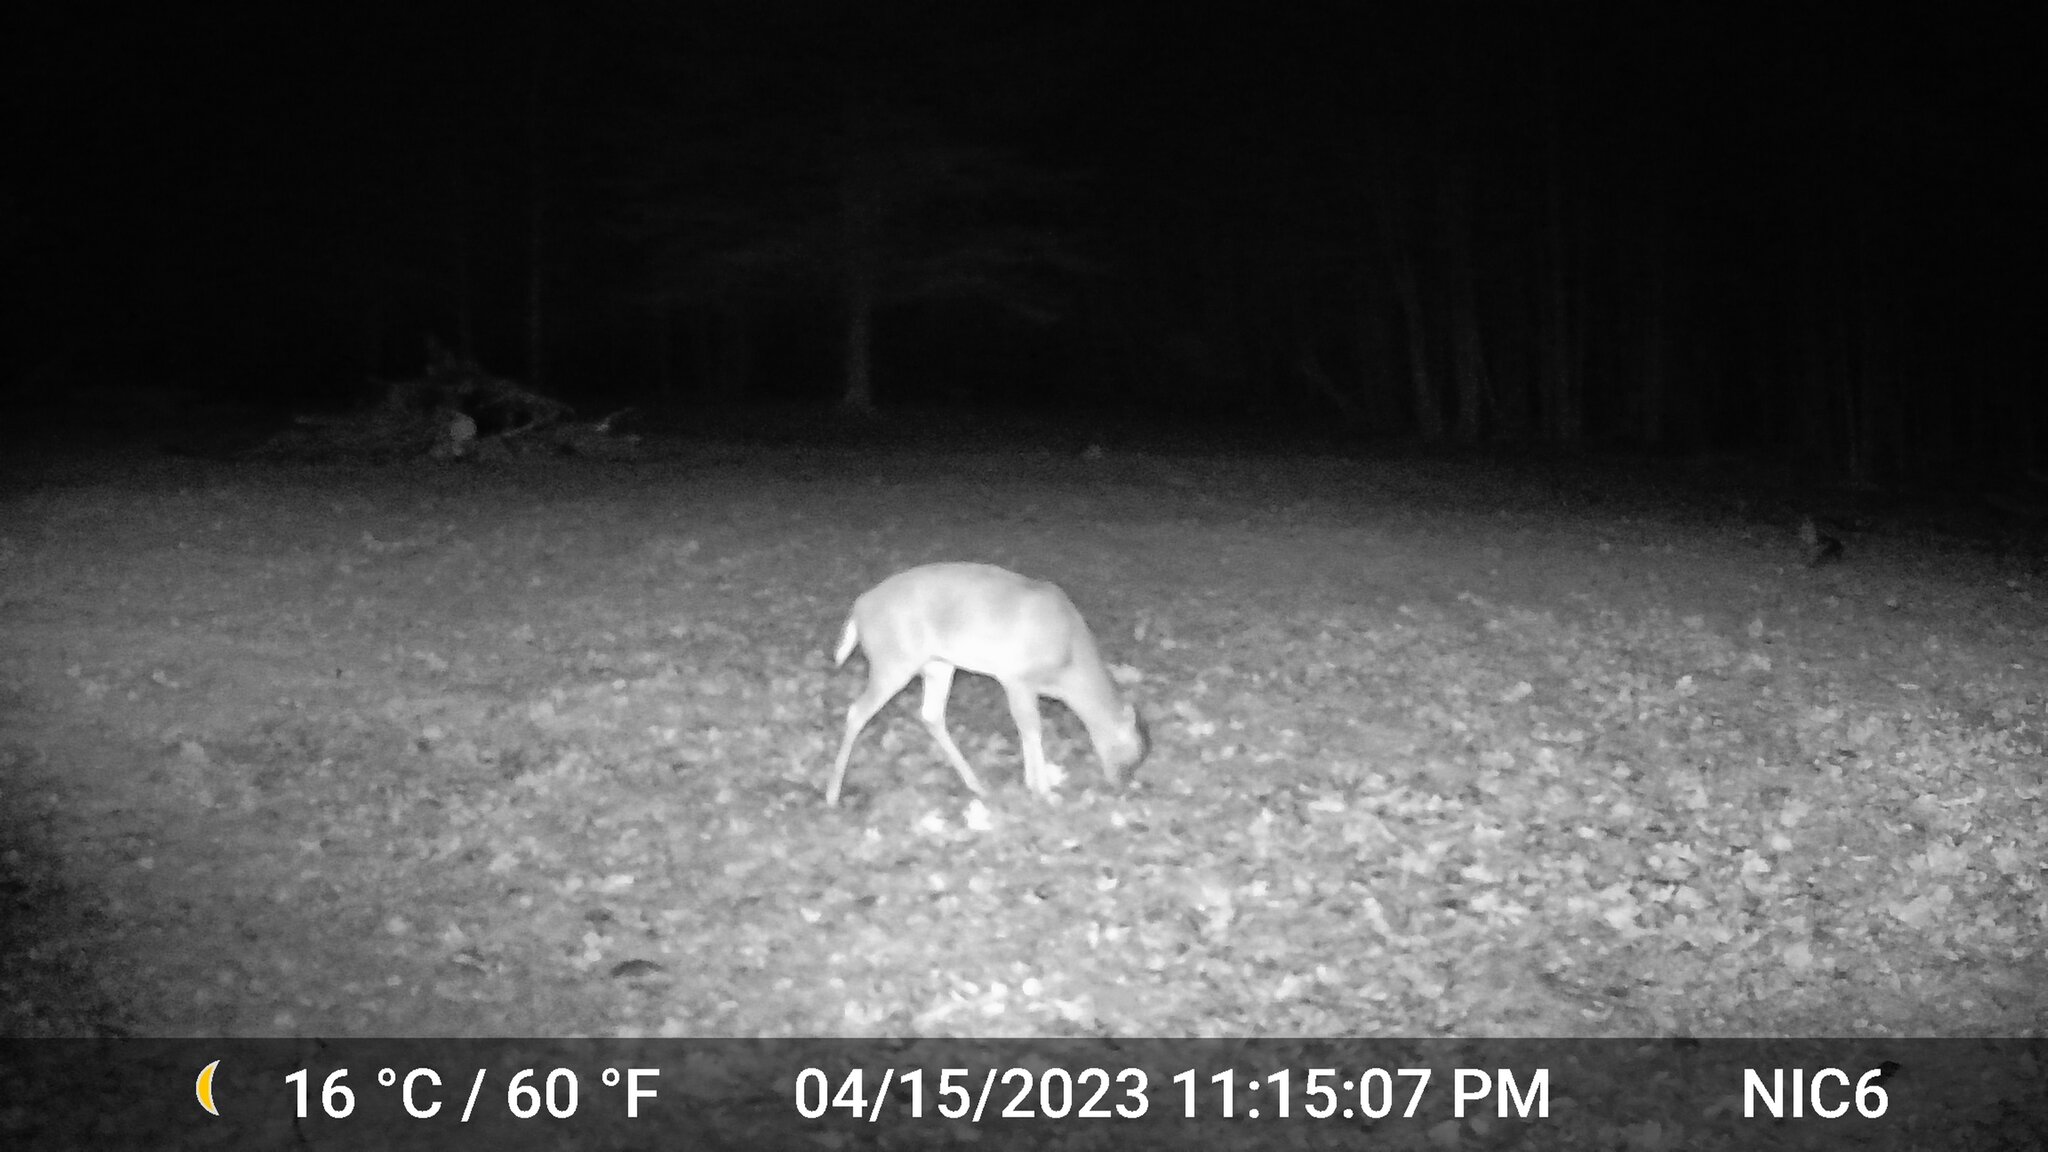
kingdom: Animalia
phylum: Chordata
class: Mammalia
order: Artiodactyla
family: Cervidae
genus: Odocoileus
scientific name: Odocoileus virginianus
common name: White-tailed deer
